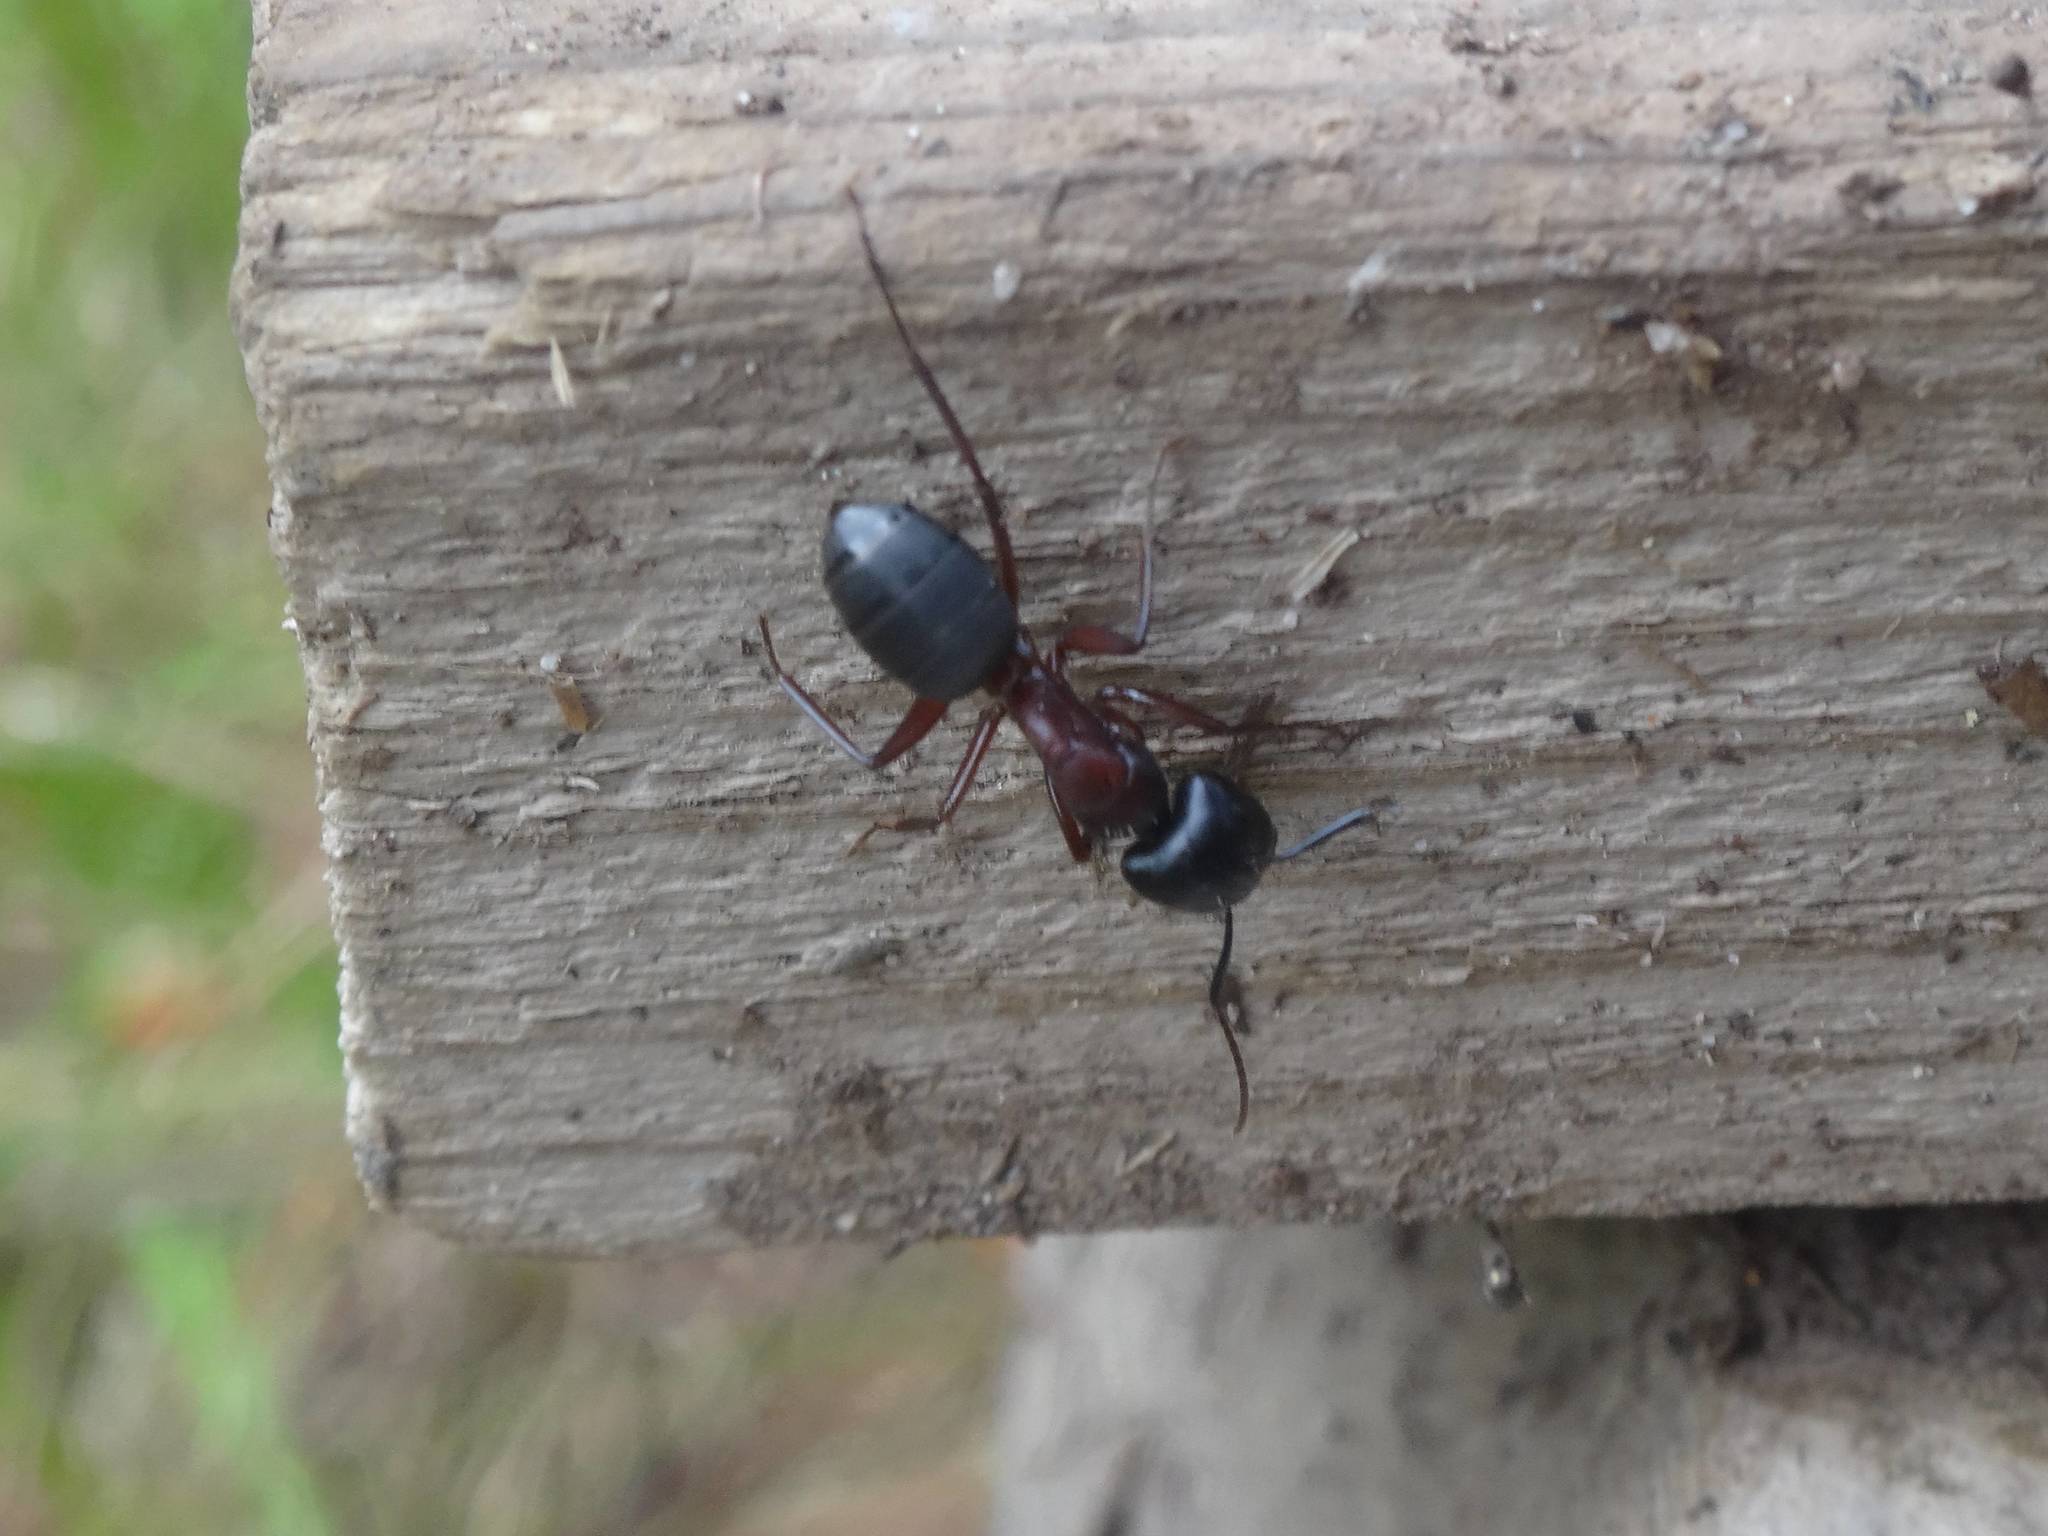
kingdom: Animalia
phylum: Arthropoda
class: Insecta
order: Hymenoptera
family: Formicidae
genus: Camponotus
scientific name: Camponotus herculeanus
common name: Hercules ant
